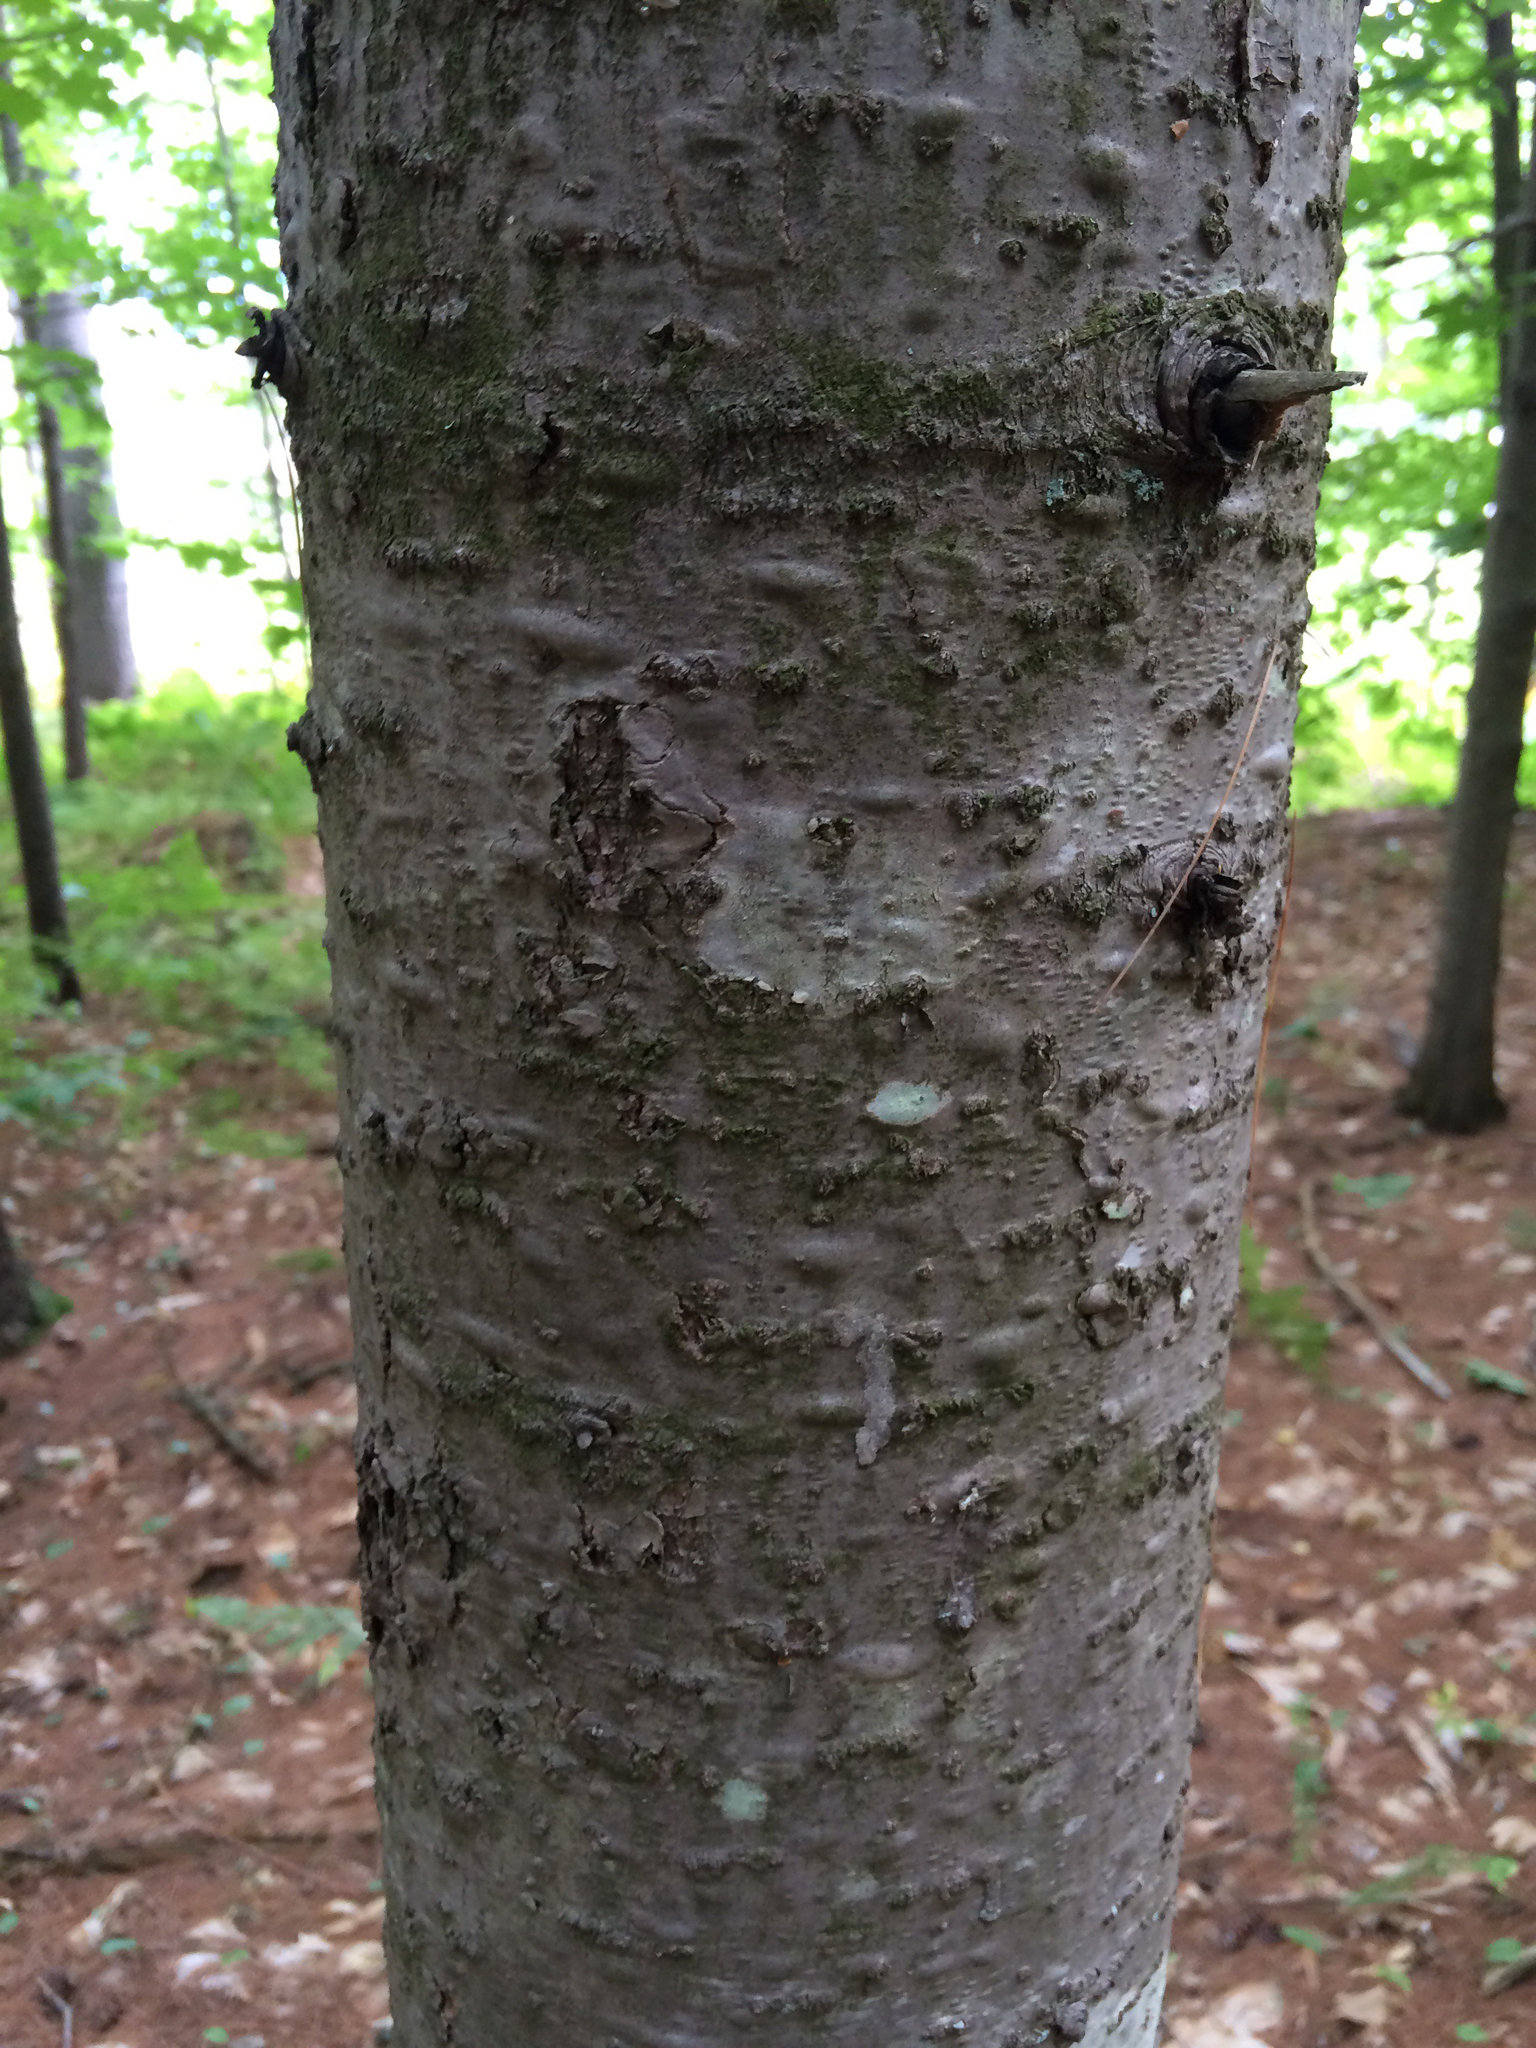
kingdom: Plantae
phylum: Tracheophyta
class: Pinopsida
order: Pinales
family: Pinaceae
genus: Abies
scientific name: Abies balsamea
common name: Balsam fir
